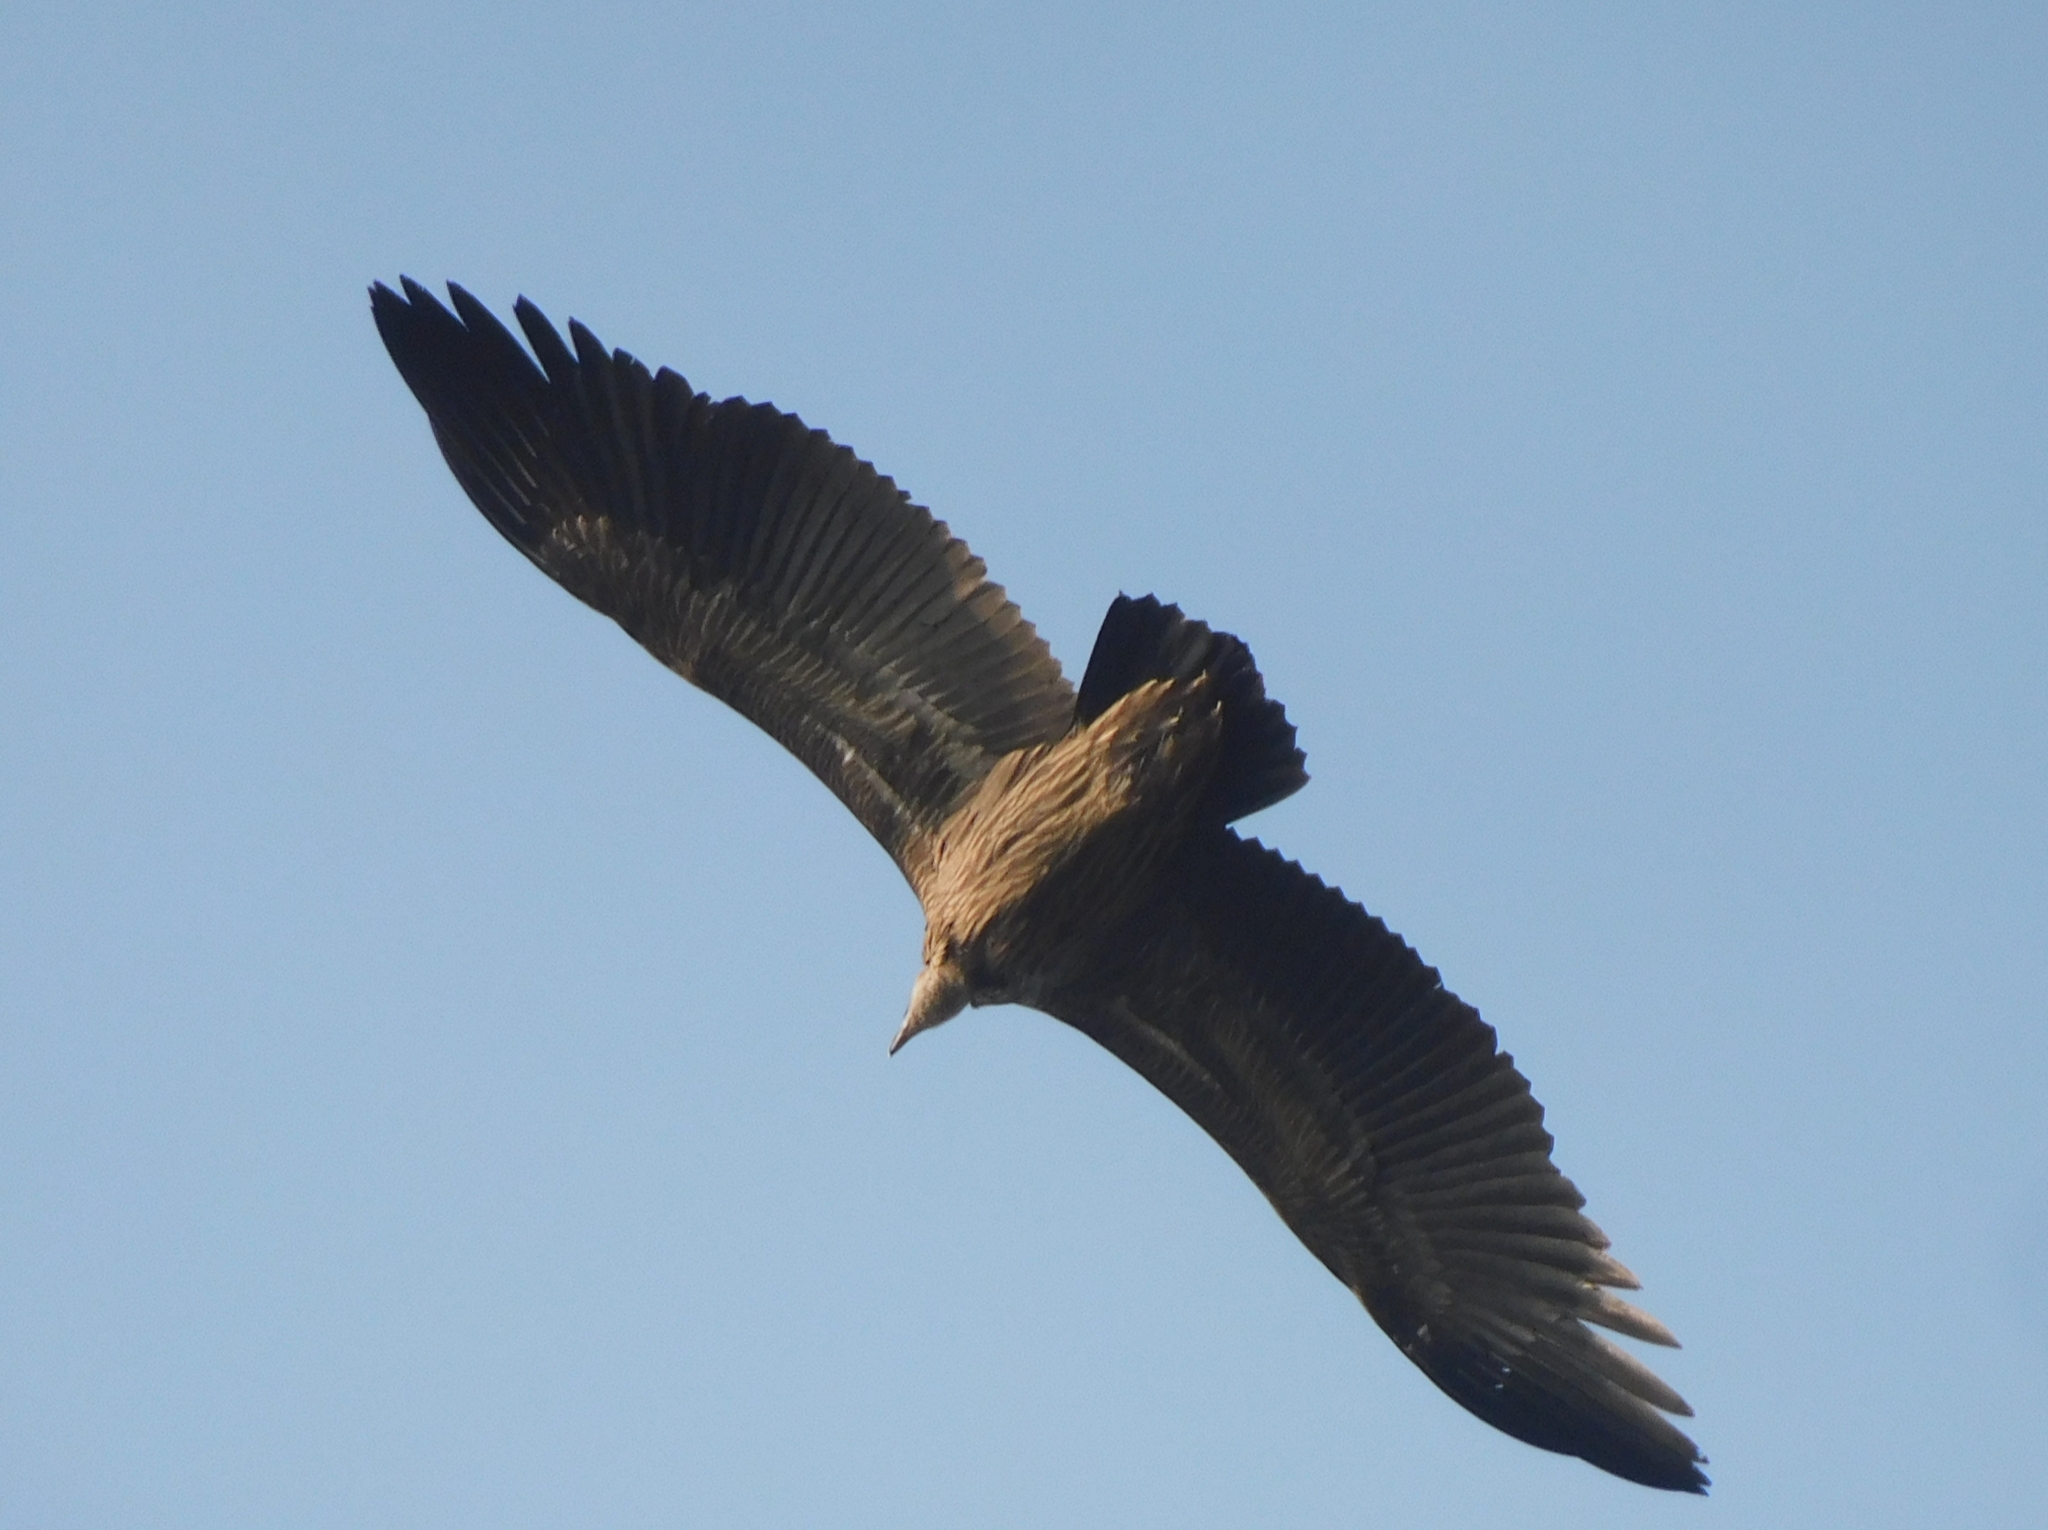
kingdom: Animalia
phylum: Chordata
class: Aves
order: Accipitriformes
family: Accipitridae
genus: Gyps
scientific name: Gyps himalayensis
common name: Himalayan griffon
